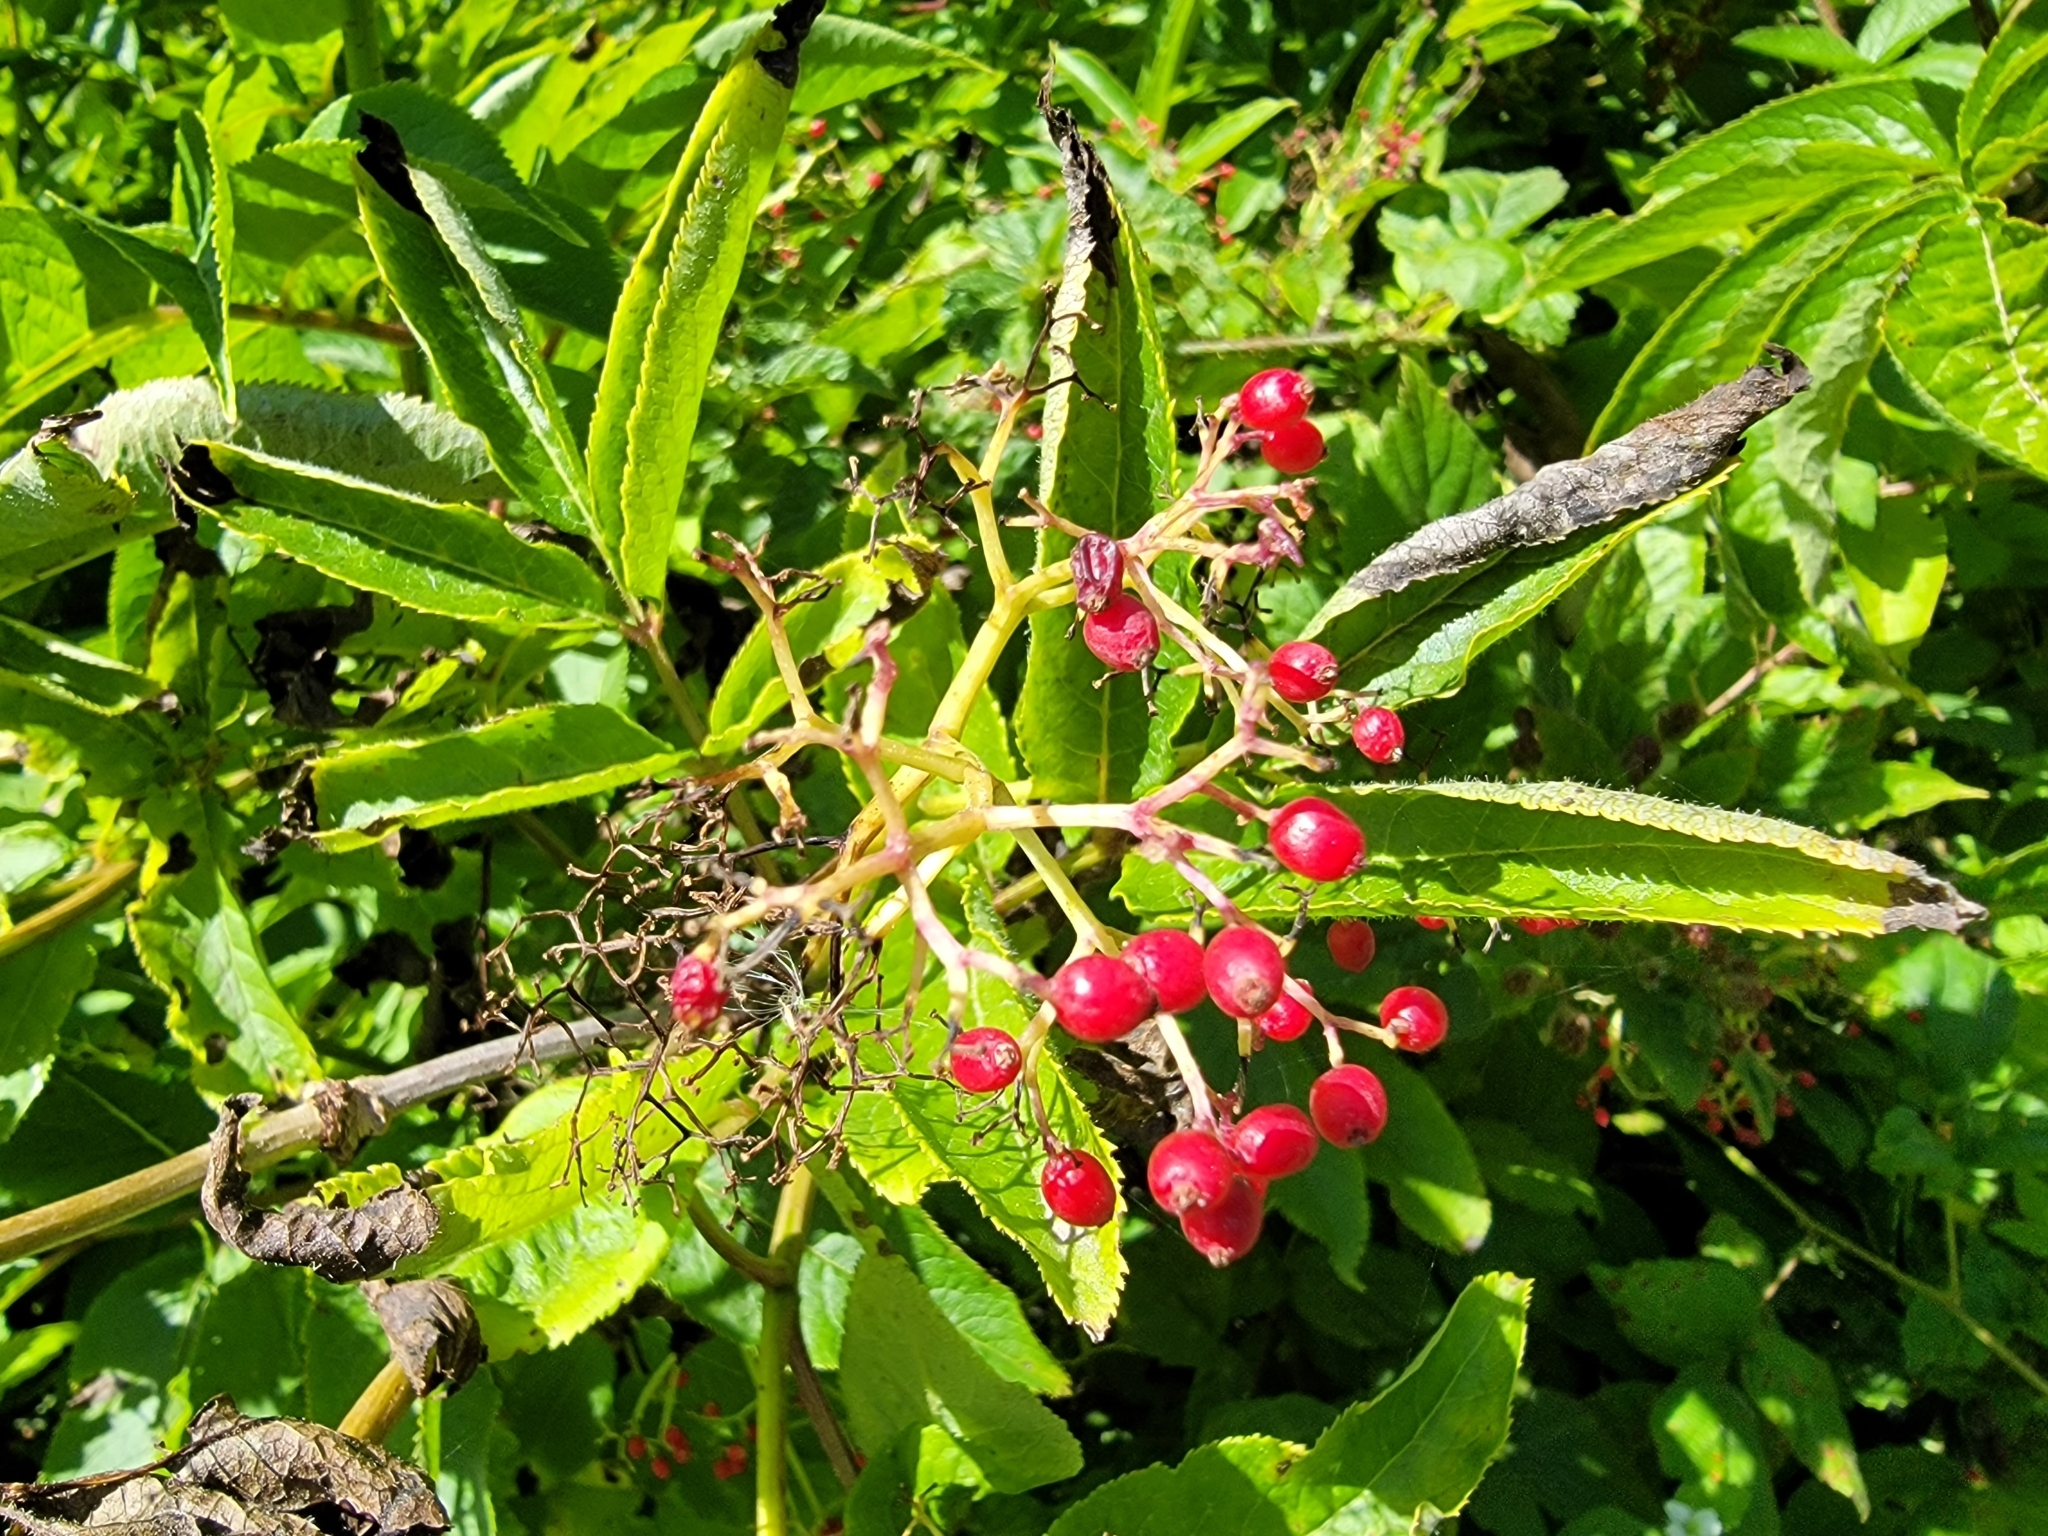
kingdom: Plantae
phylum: Tracheophyta
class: Magnoliopsida
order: Dipsacales
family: Viburnaceae
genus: Sambucus
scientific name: Sambucus racemosa
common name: Red-berried elder
